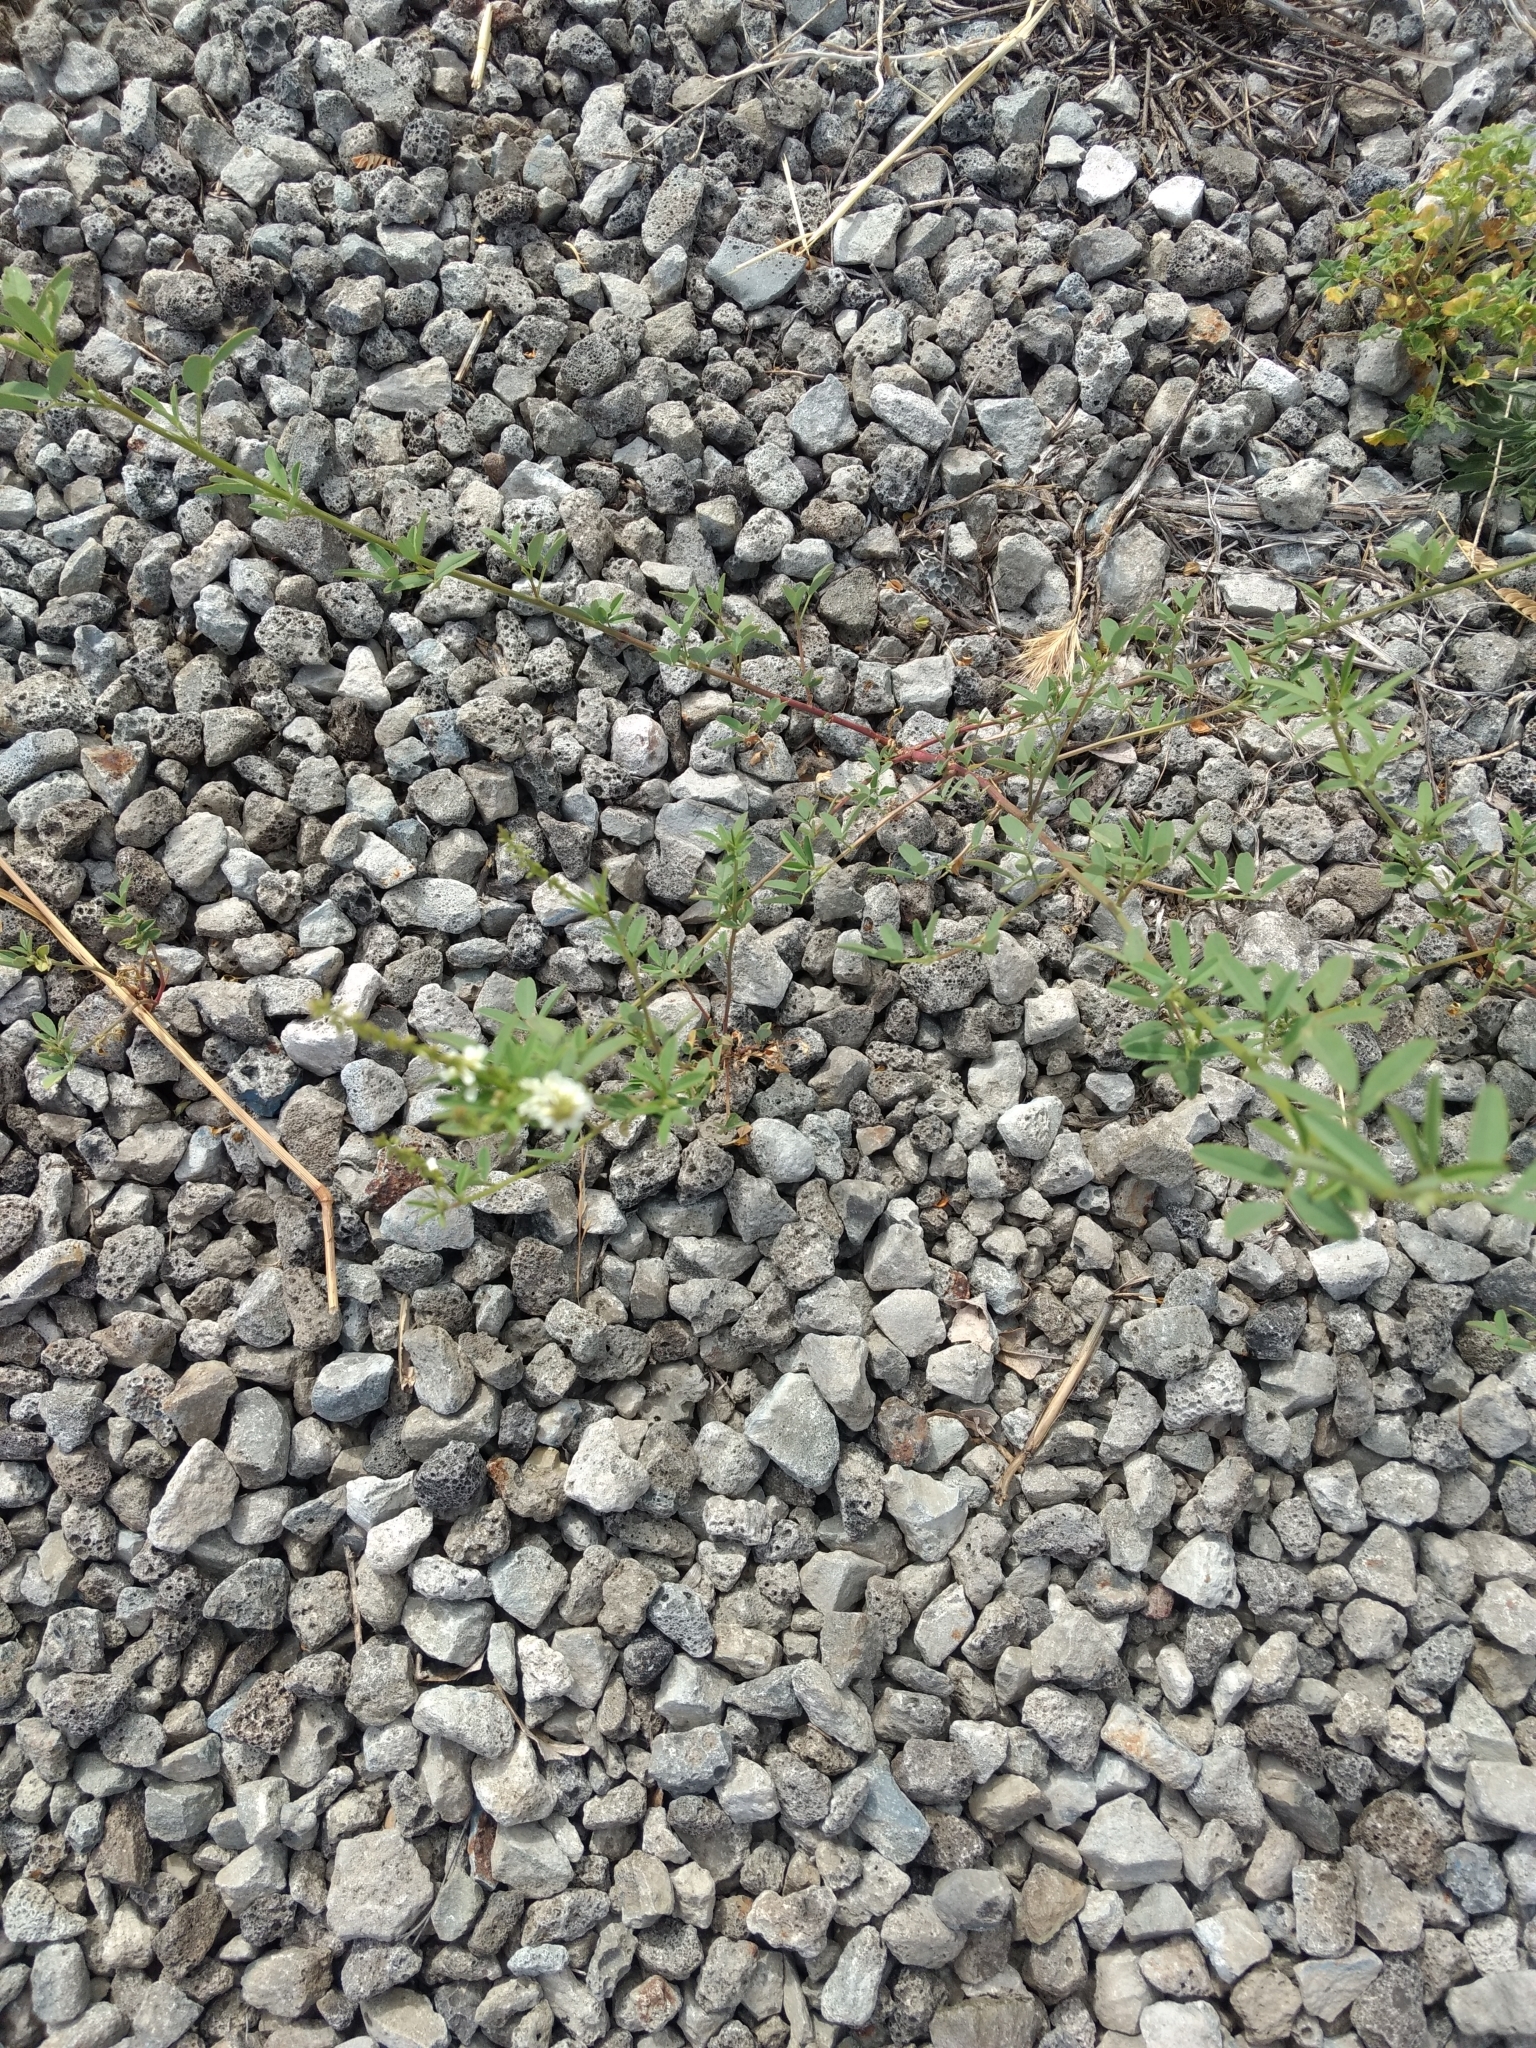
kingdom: Plantae
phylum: Tracheophyta
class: Magnoliopsida
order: Fabales
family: Fabaceae
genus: Melilotus
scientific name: Melilotus albus
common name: White melilot
